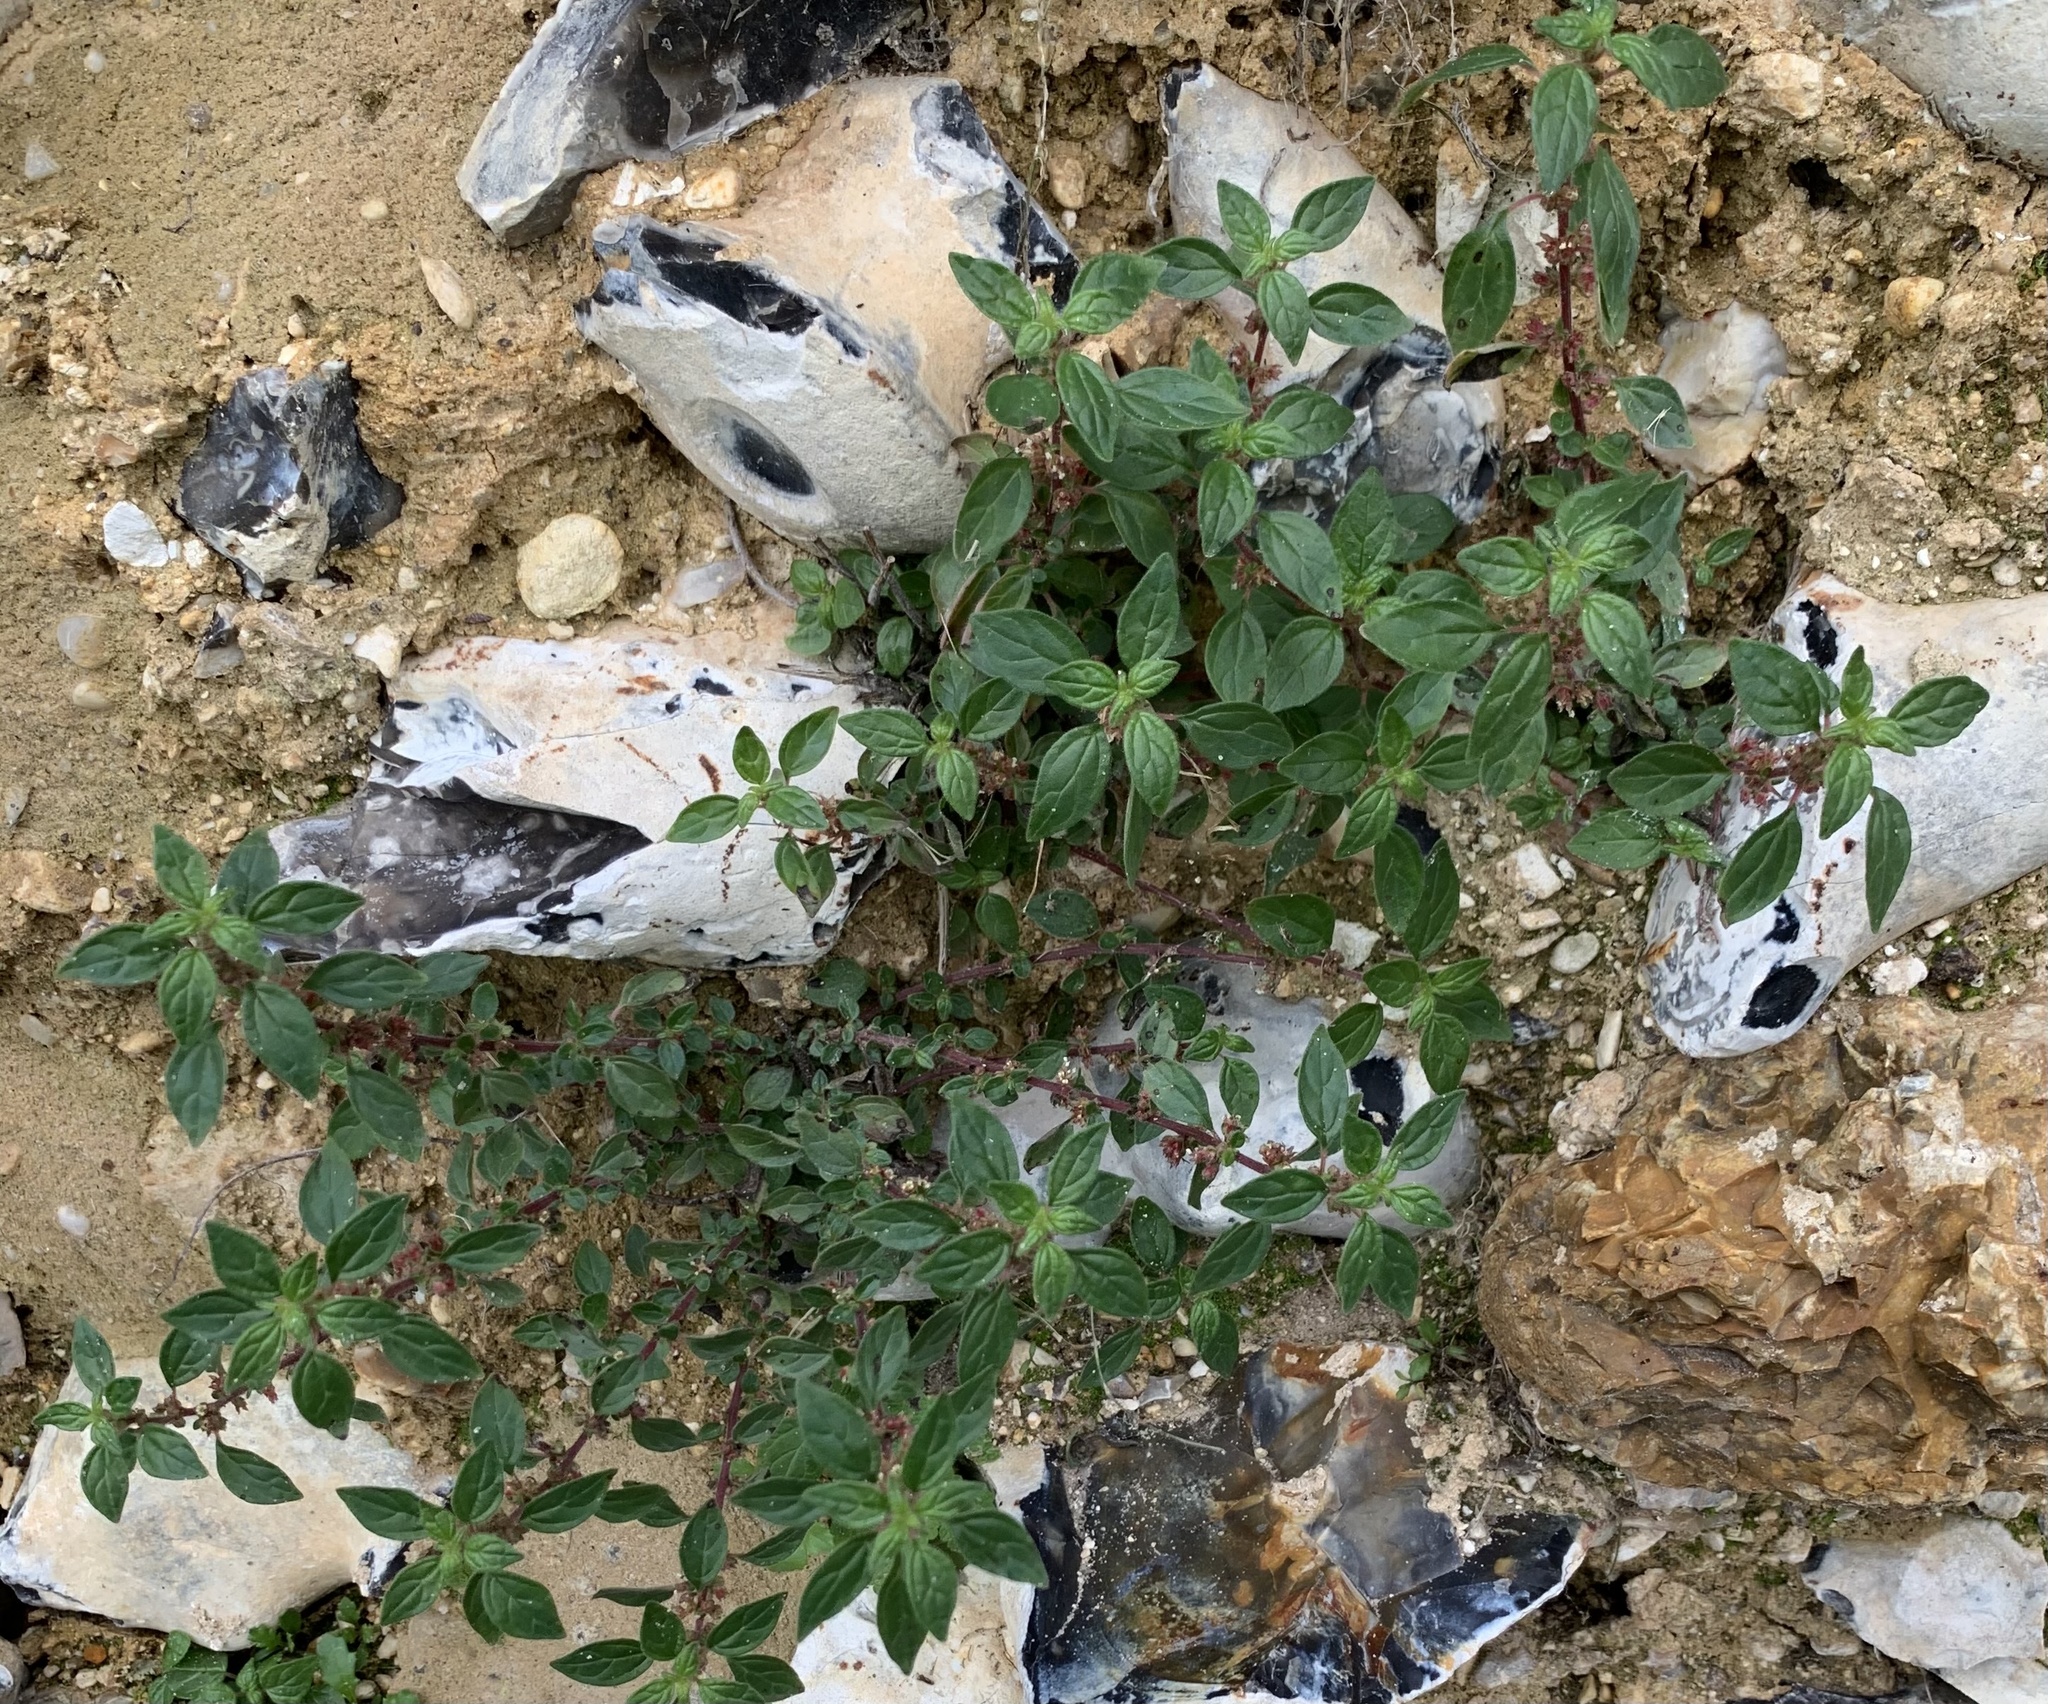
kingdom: Plantae
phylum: Tracheophyta
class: Magnoliopsida
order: Rosales
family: Urticaceae
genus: Parietaria
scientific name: Parietaria judaica
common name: Pellitory-of-the-wall
